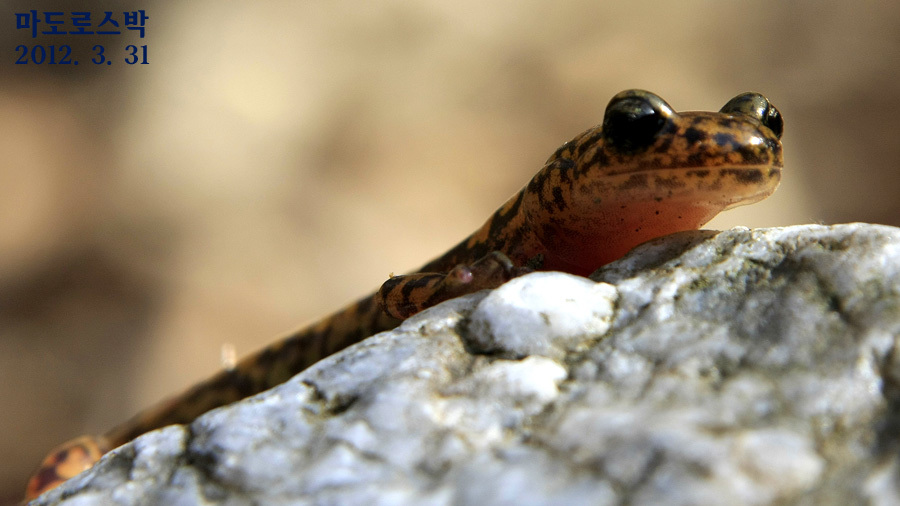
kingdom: Animalia
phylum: Chordata
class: Amphibia
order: Caudata
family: Hynobiidae
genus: Onychodactylus
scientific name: Onychodactylus koreanus
